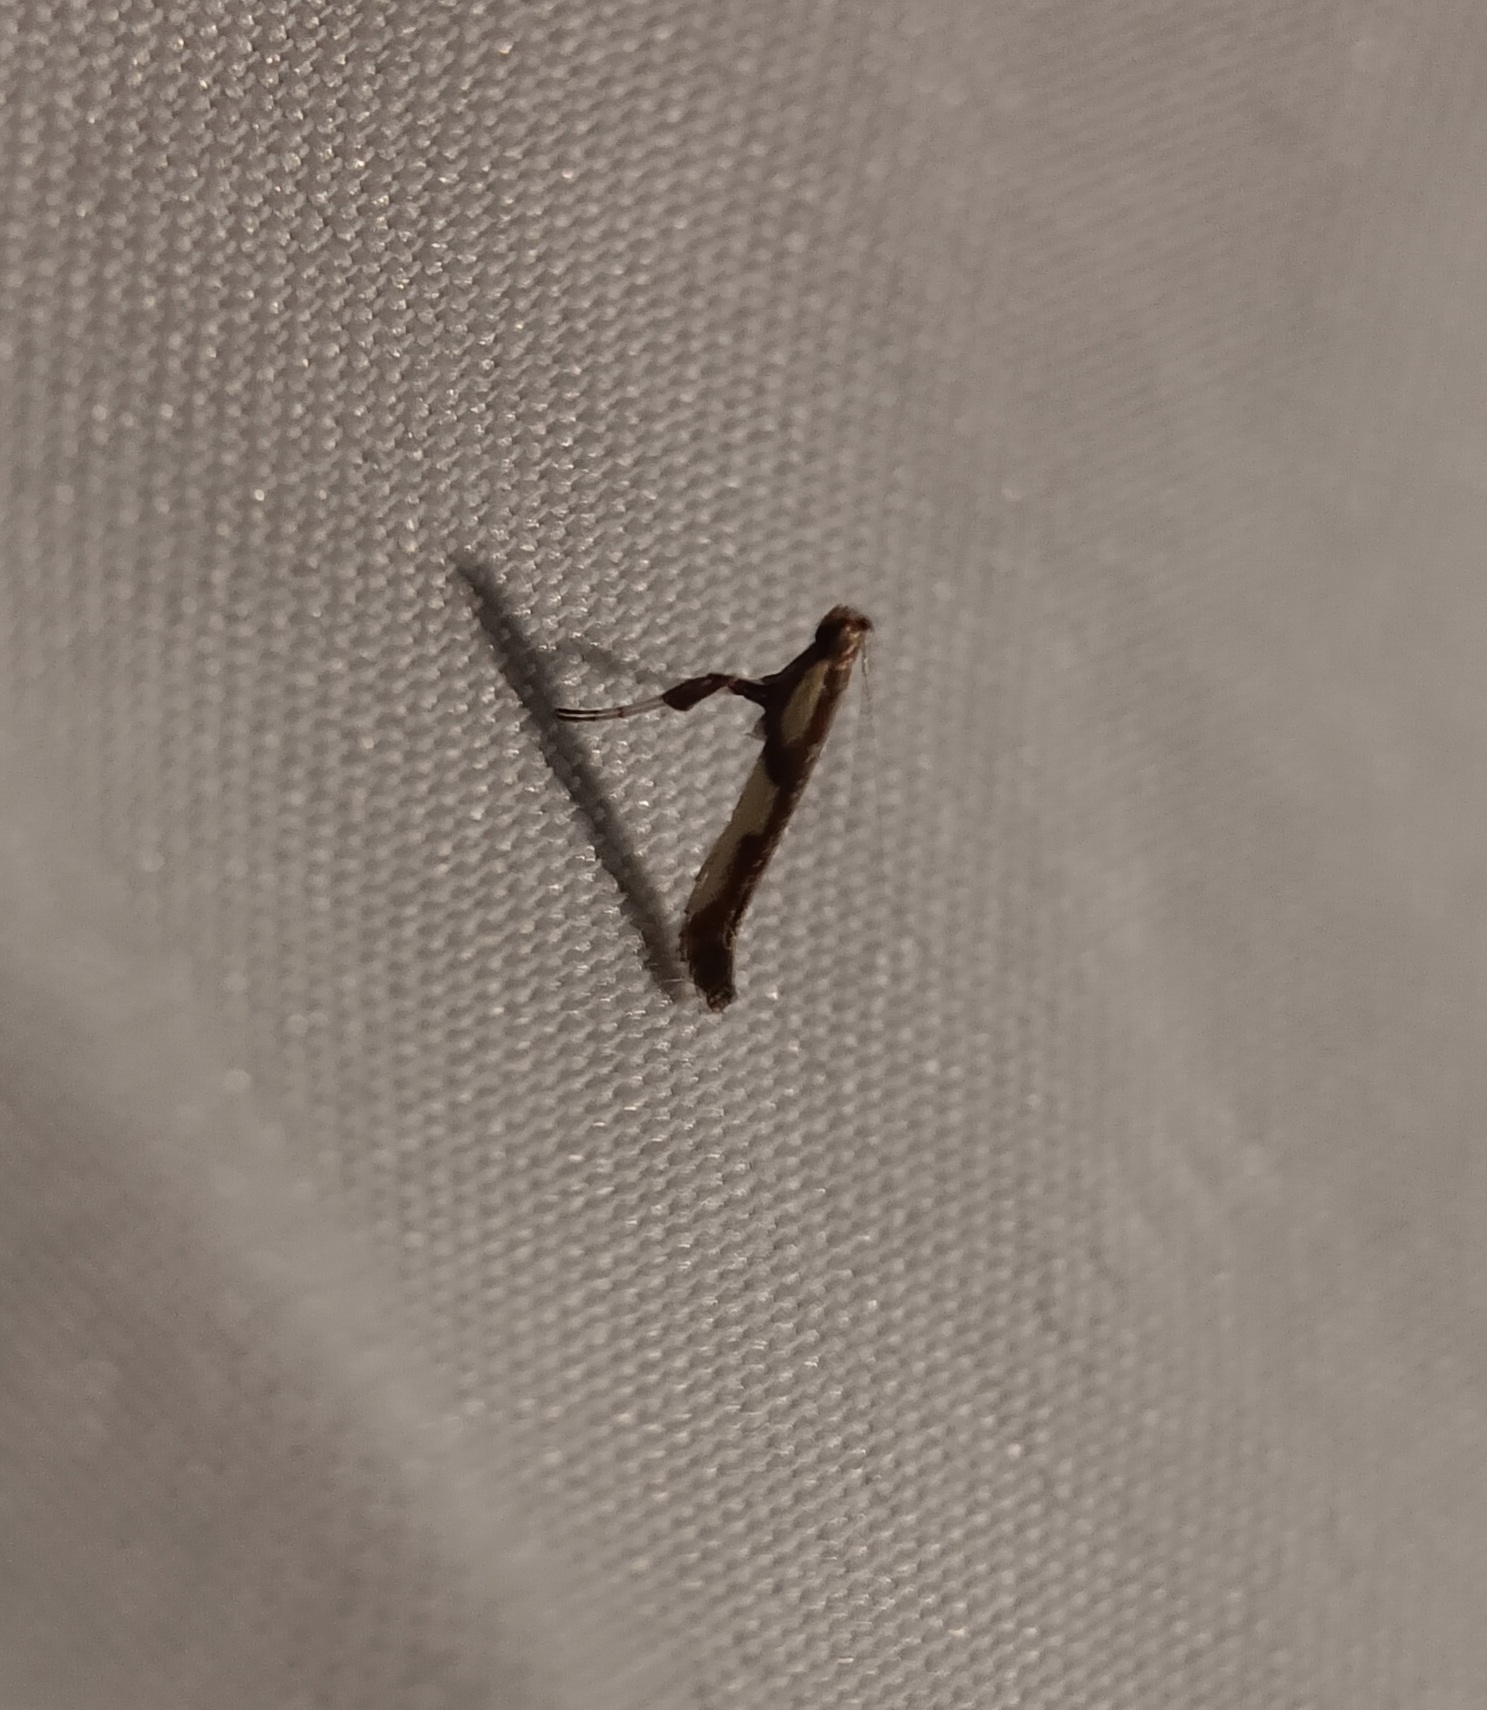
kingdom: Animalia
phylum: Arthropoda
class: Insecta
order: Lepidoptera
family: Gracillariidae
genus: Caloptilia
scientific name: Caloptilia blandella
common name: Walnut caloptilia moth
